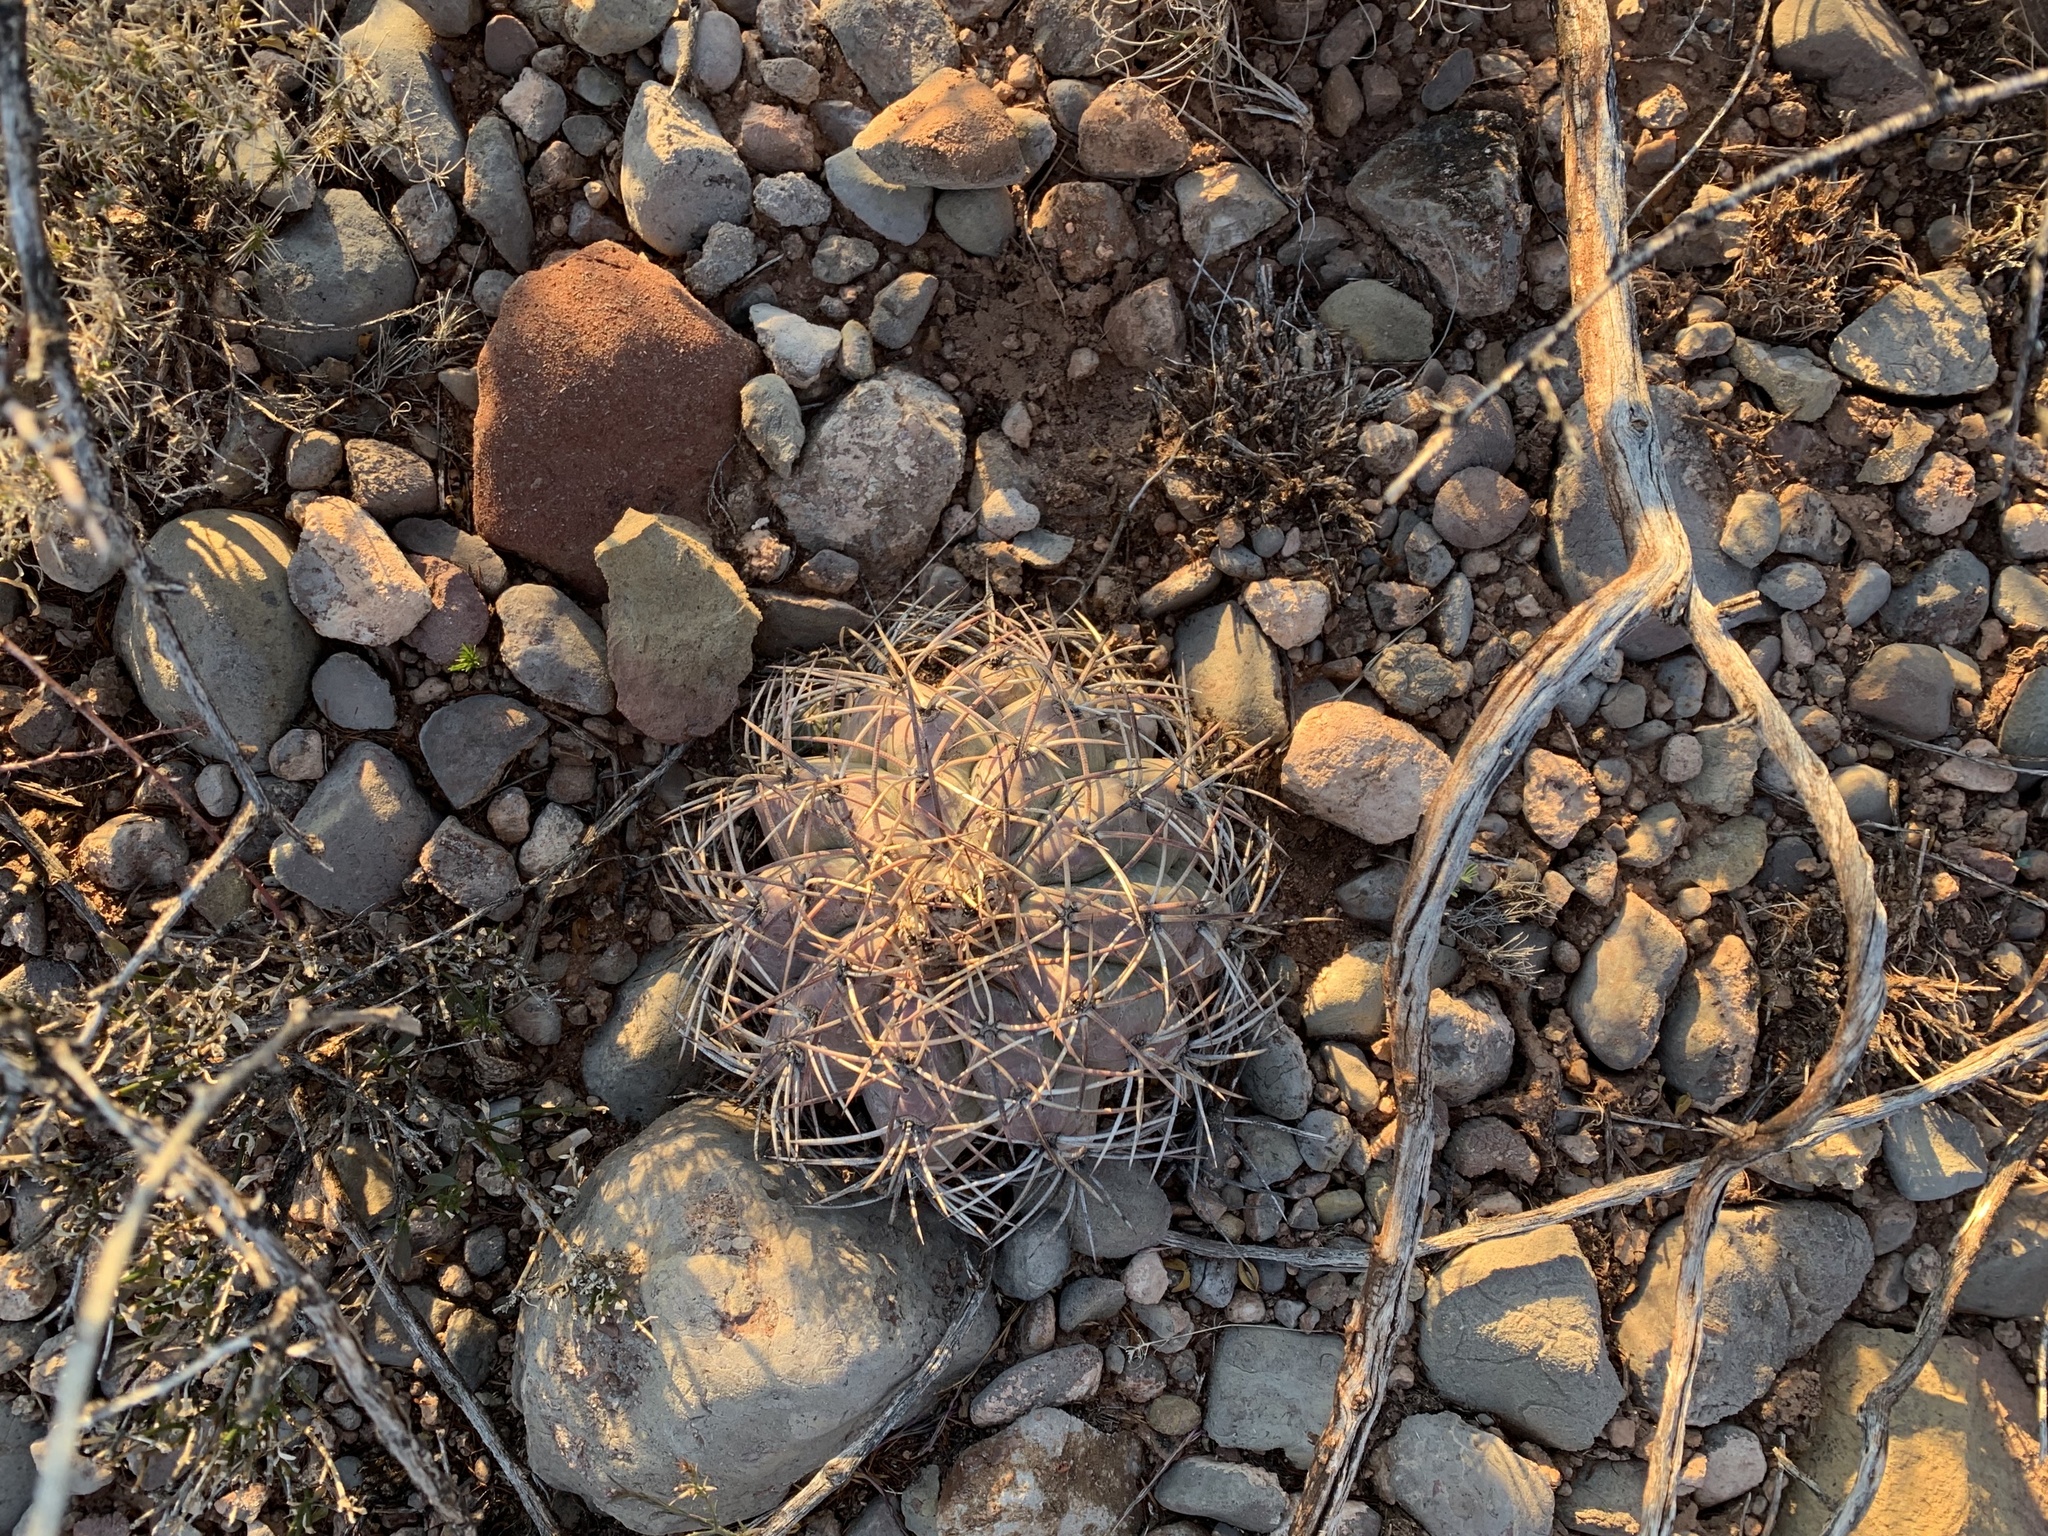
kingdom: Plantae
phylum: Tracheophyta
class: Magnoliopsida
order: Caryophyllales
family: Cactaceae
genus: Echinocactus
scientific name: Echinocactus horizonthalonius
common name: Devilshead
